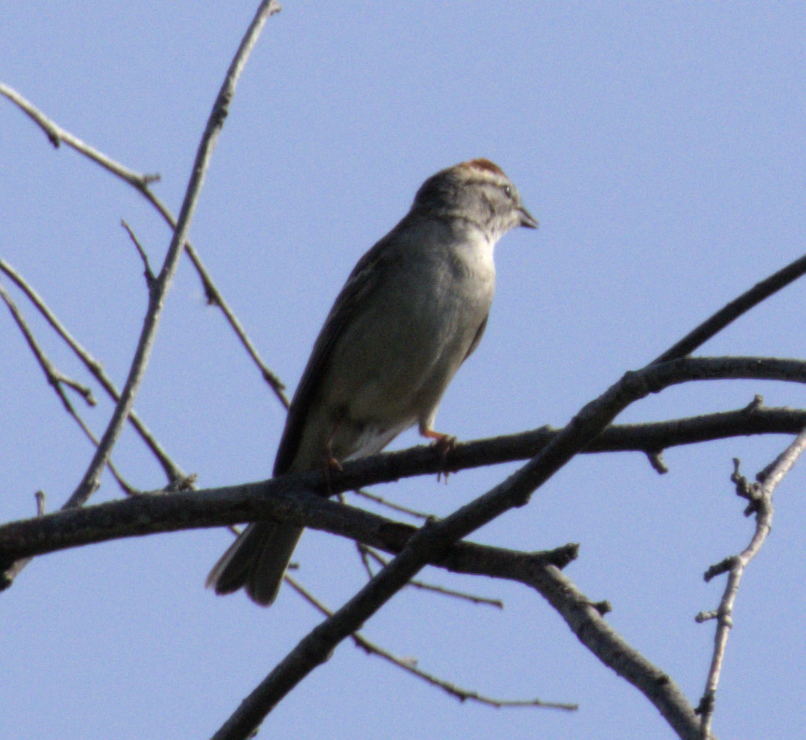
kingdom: Animalia
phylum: Chordata
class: Aves
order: Passeriformes
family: Passerellidae
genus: Spizella
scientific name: Spizella passerina
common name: Chipping sparrow
